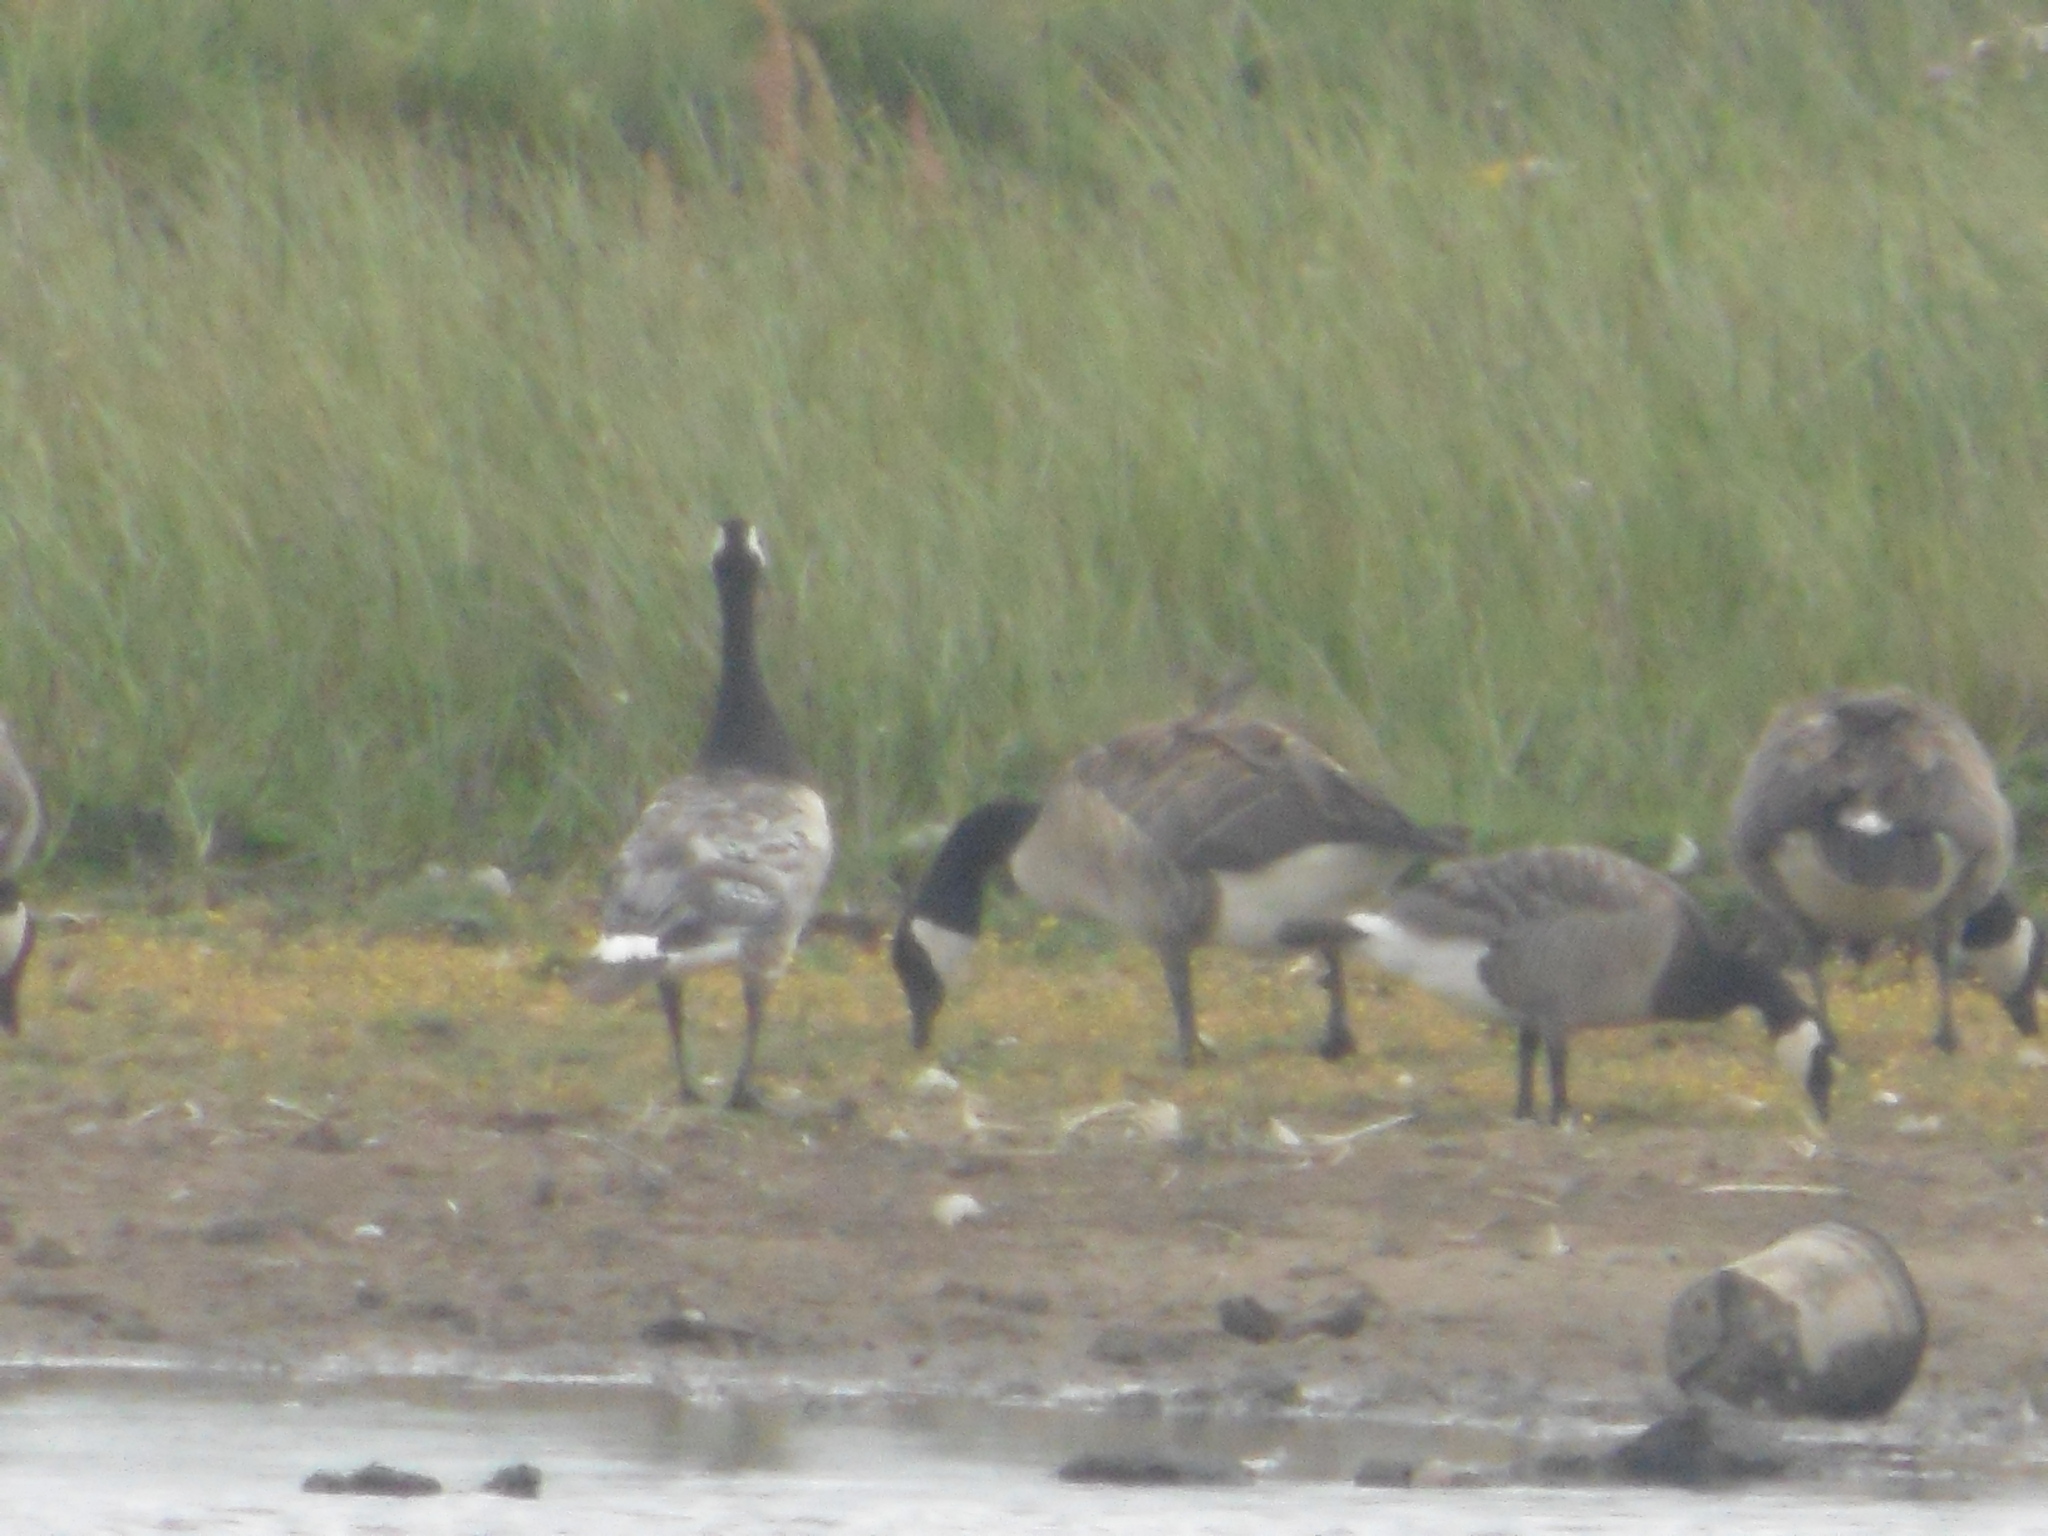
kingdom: Animalia
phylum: Chordata
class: Aves
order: Anseriformes
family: Anatidae
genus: Branta
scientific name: Branta
